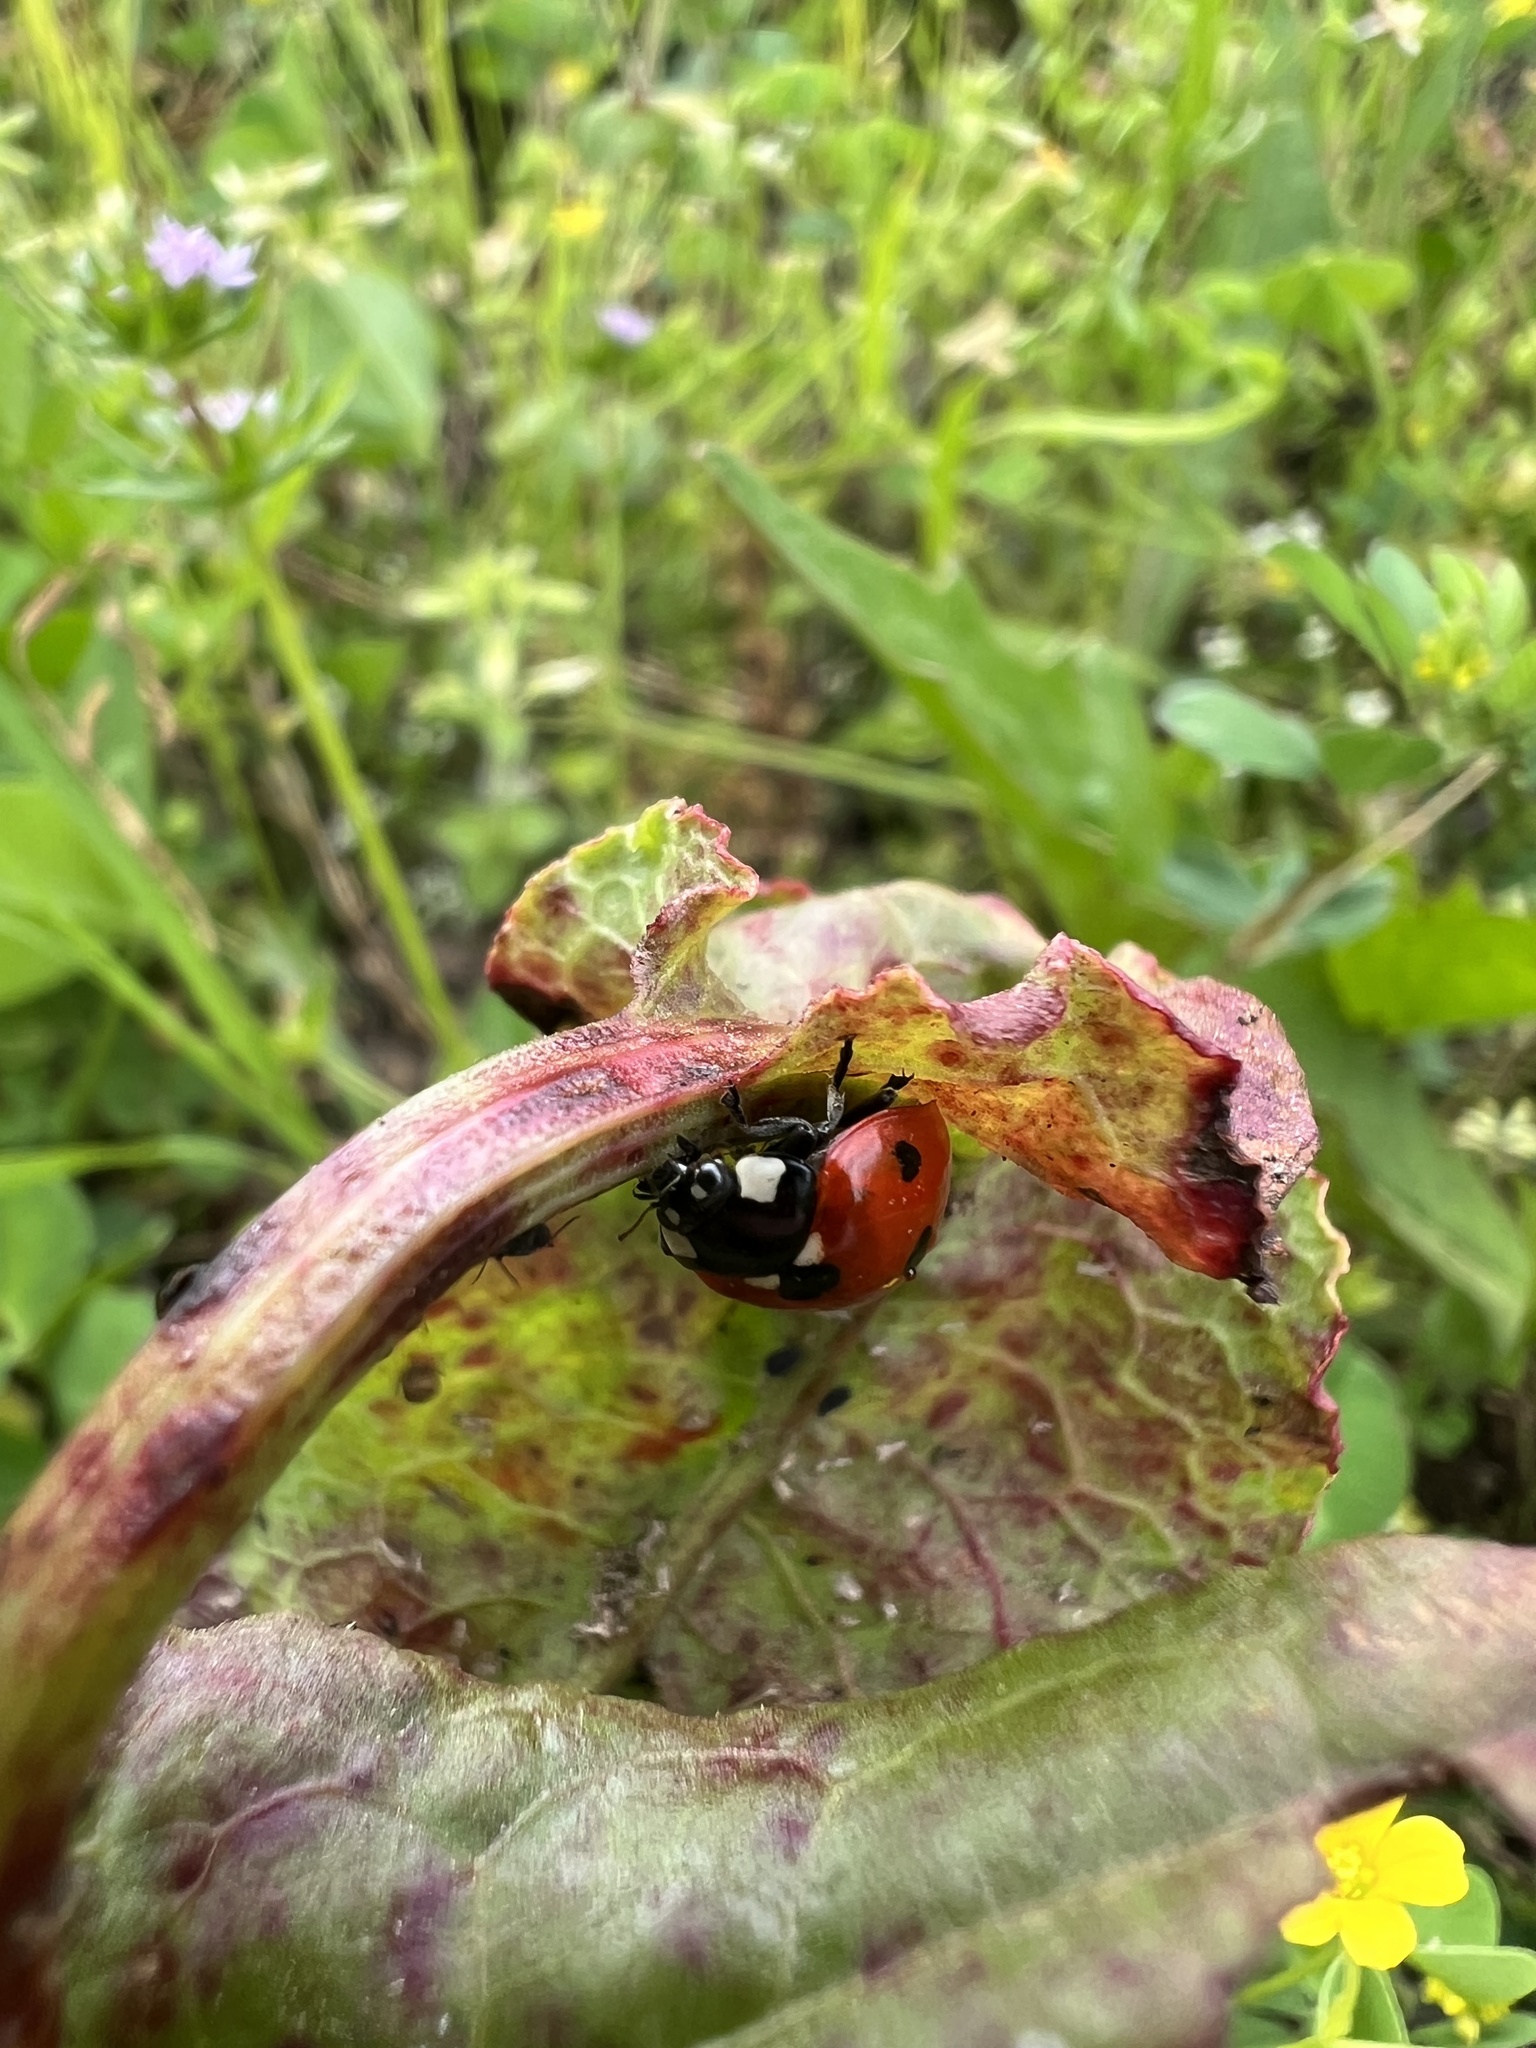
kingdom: Animalia
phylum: Arthropoda
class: Insecta
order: Coleoptera
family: Coccinellidae
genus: Coccinella
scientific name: Coccinella septempunctata
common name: Sevenspotted lady beetle
